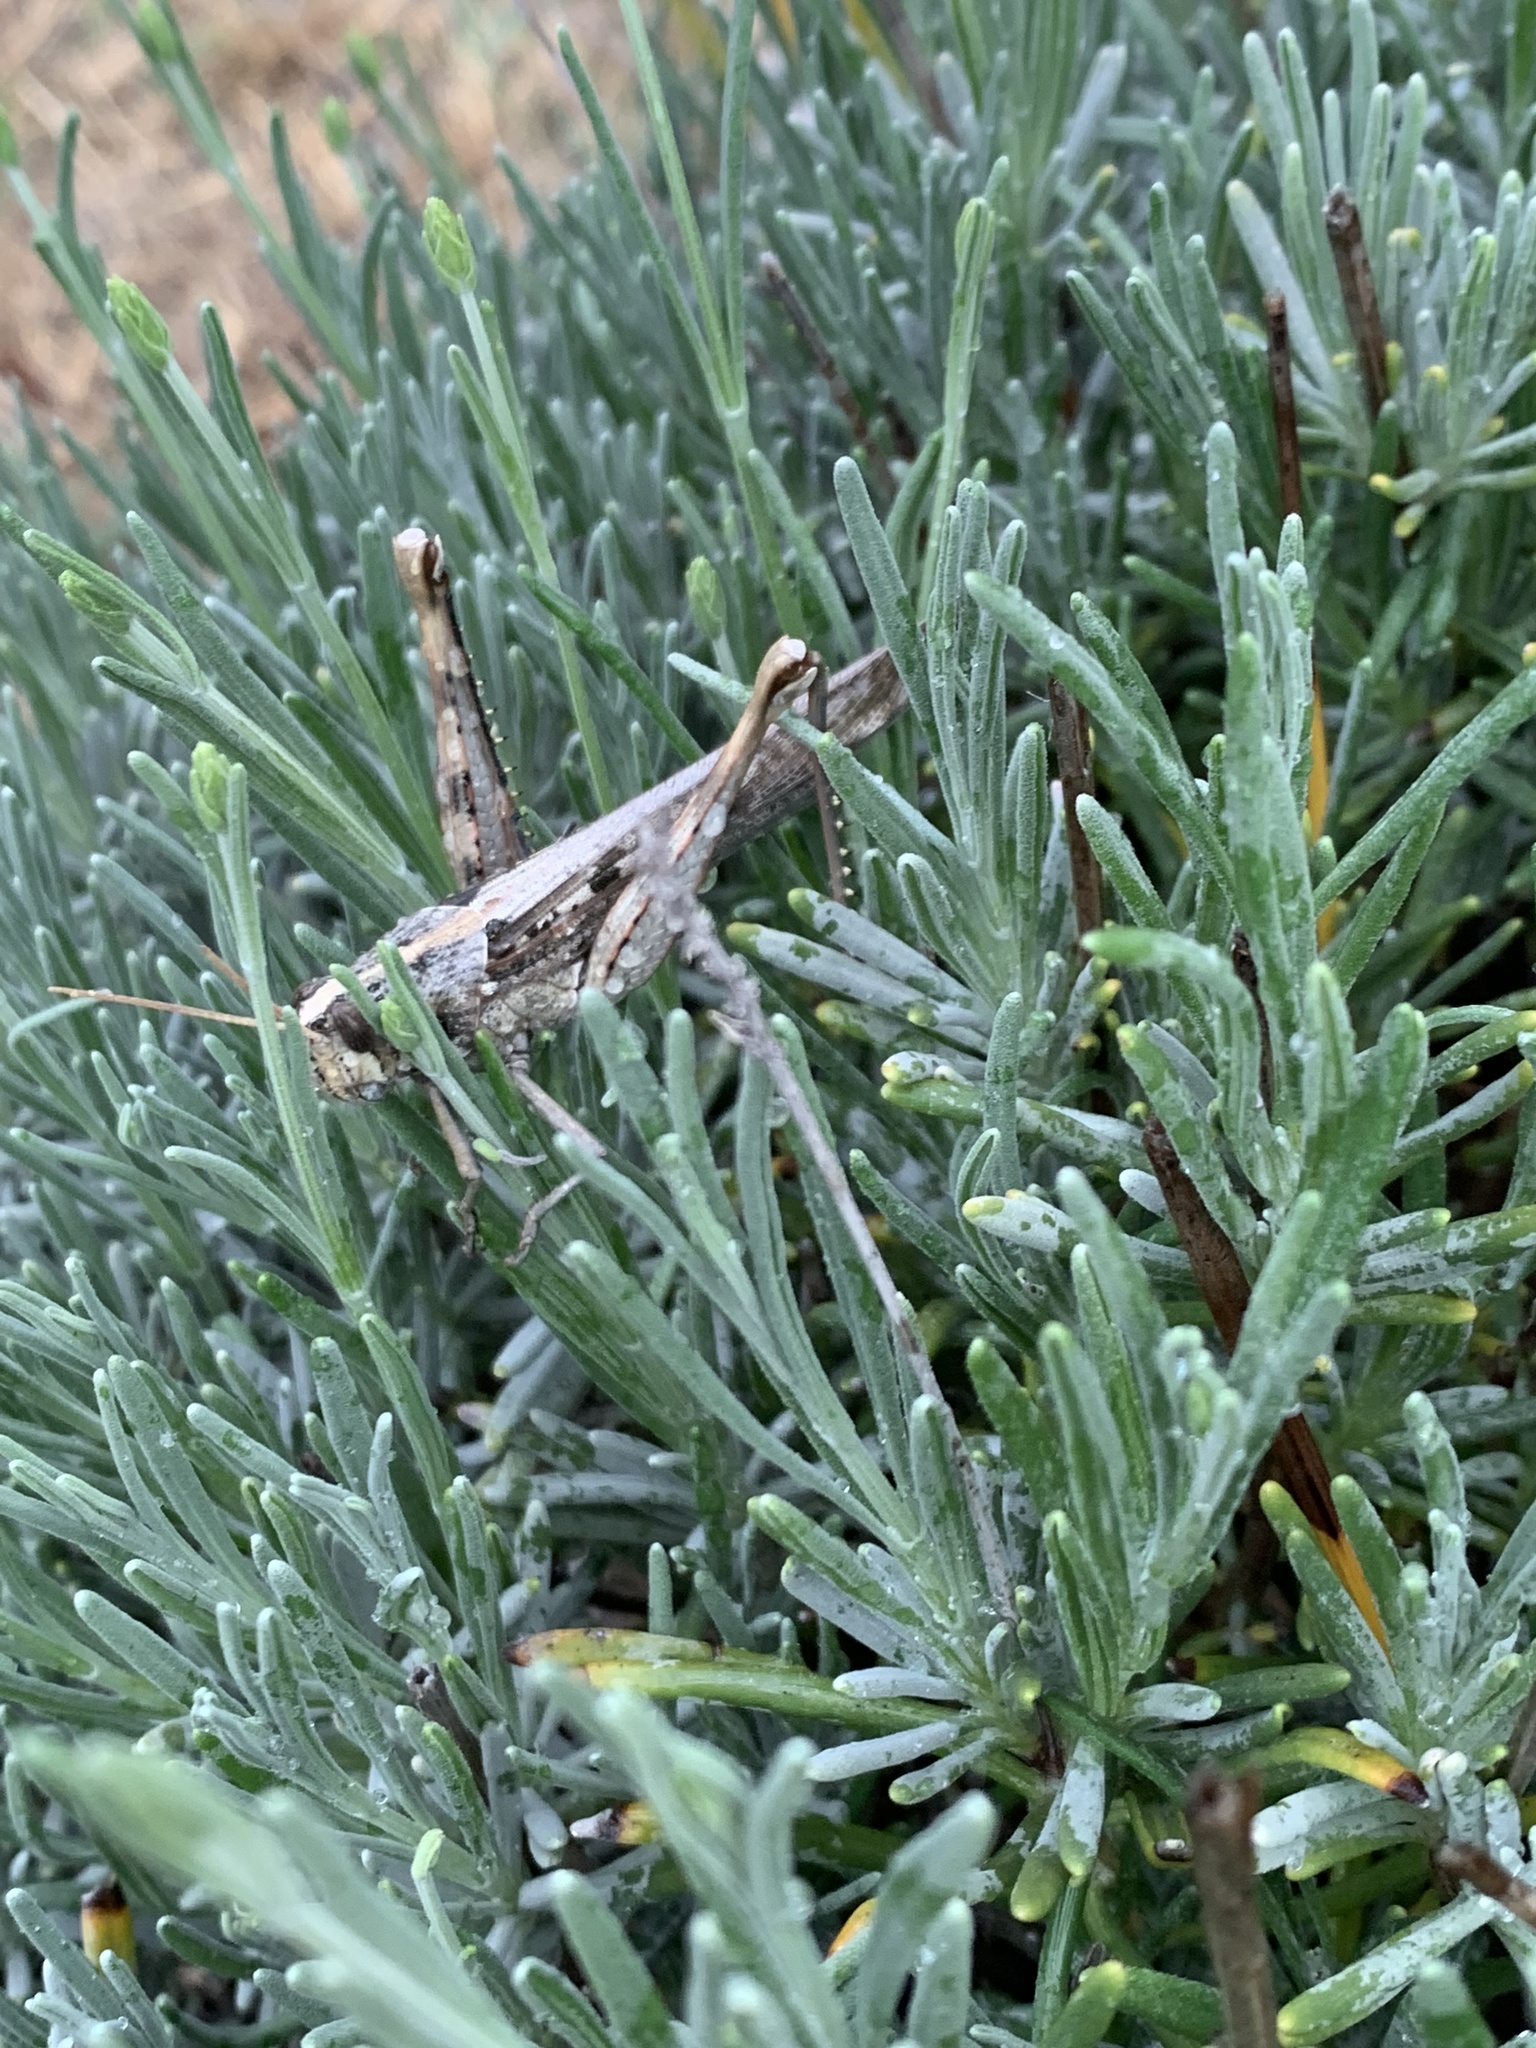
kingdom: Animalia
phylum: Arthropoda
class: Insecta
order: Orthoptera
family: Acrididae
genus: Schistocerca
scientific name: Schistocerca nitens
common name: Vagrant grasshopper
